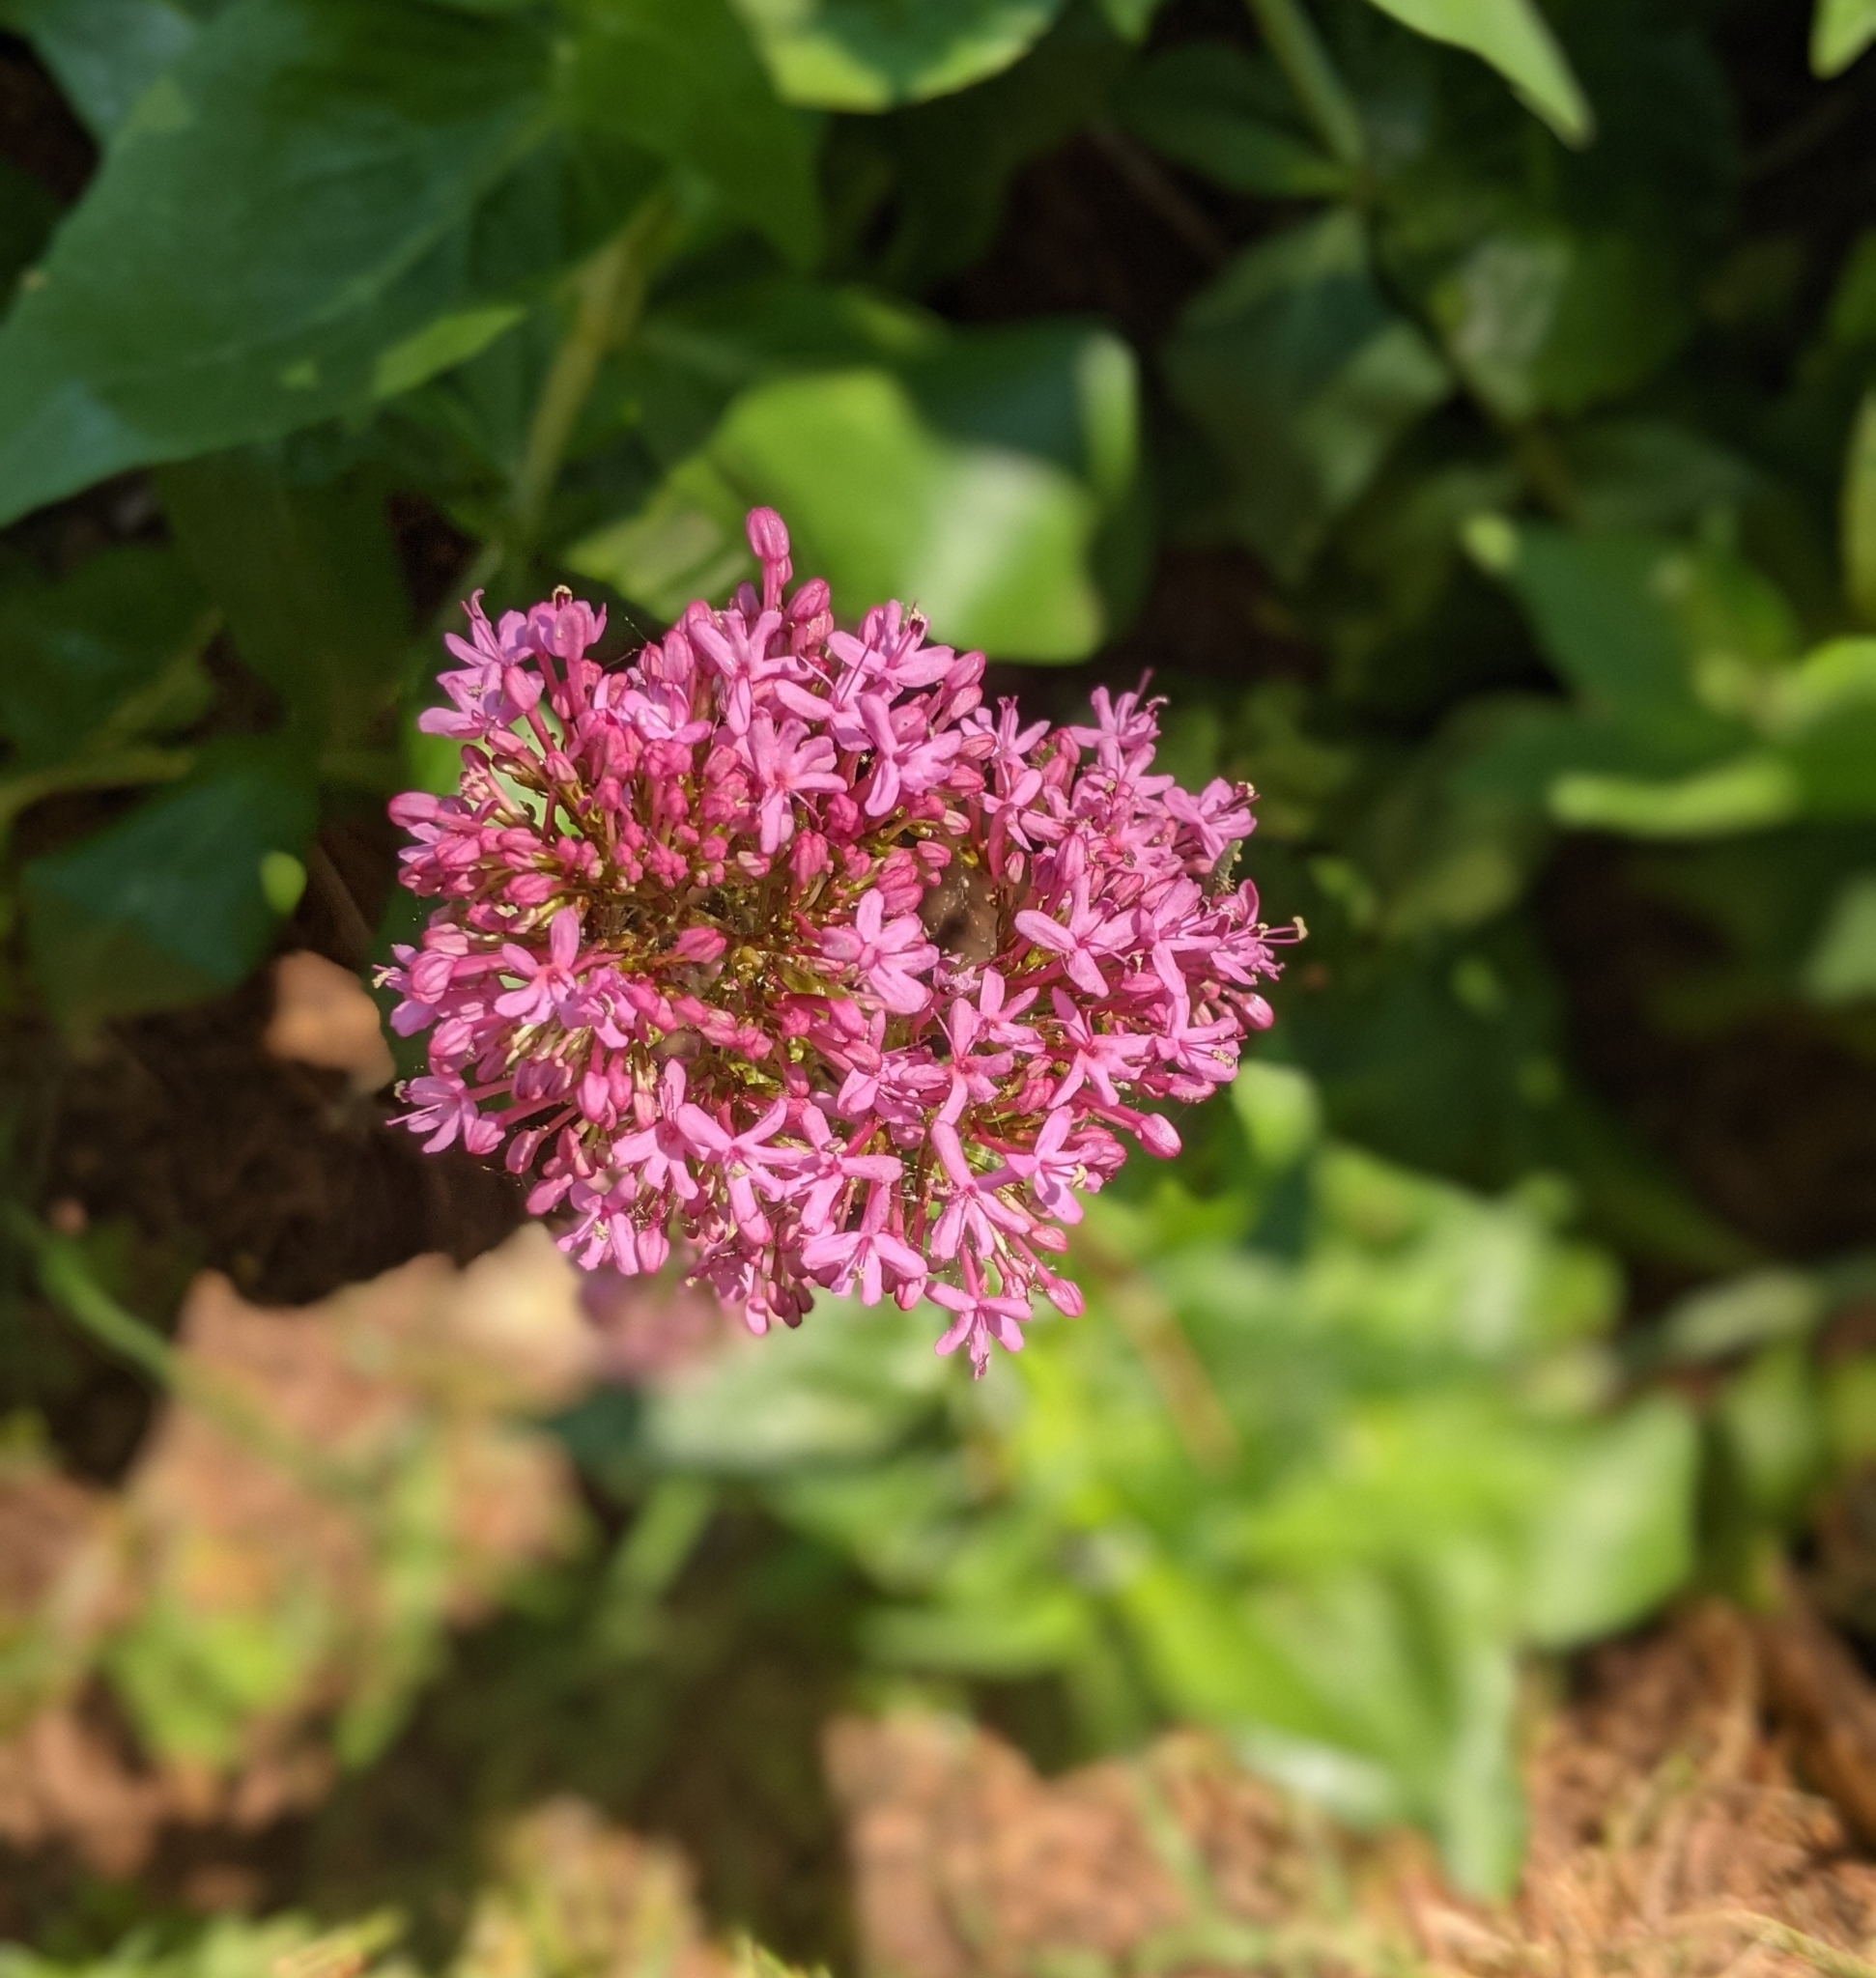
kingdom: Plantae
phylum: Tracheophyta
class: Magnoliopsida
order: Dipsacales
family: Caprifoliaceae
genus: Centranthus
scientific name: Centranthus ruber
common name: Red valerian
